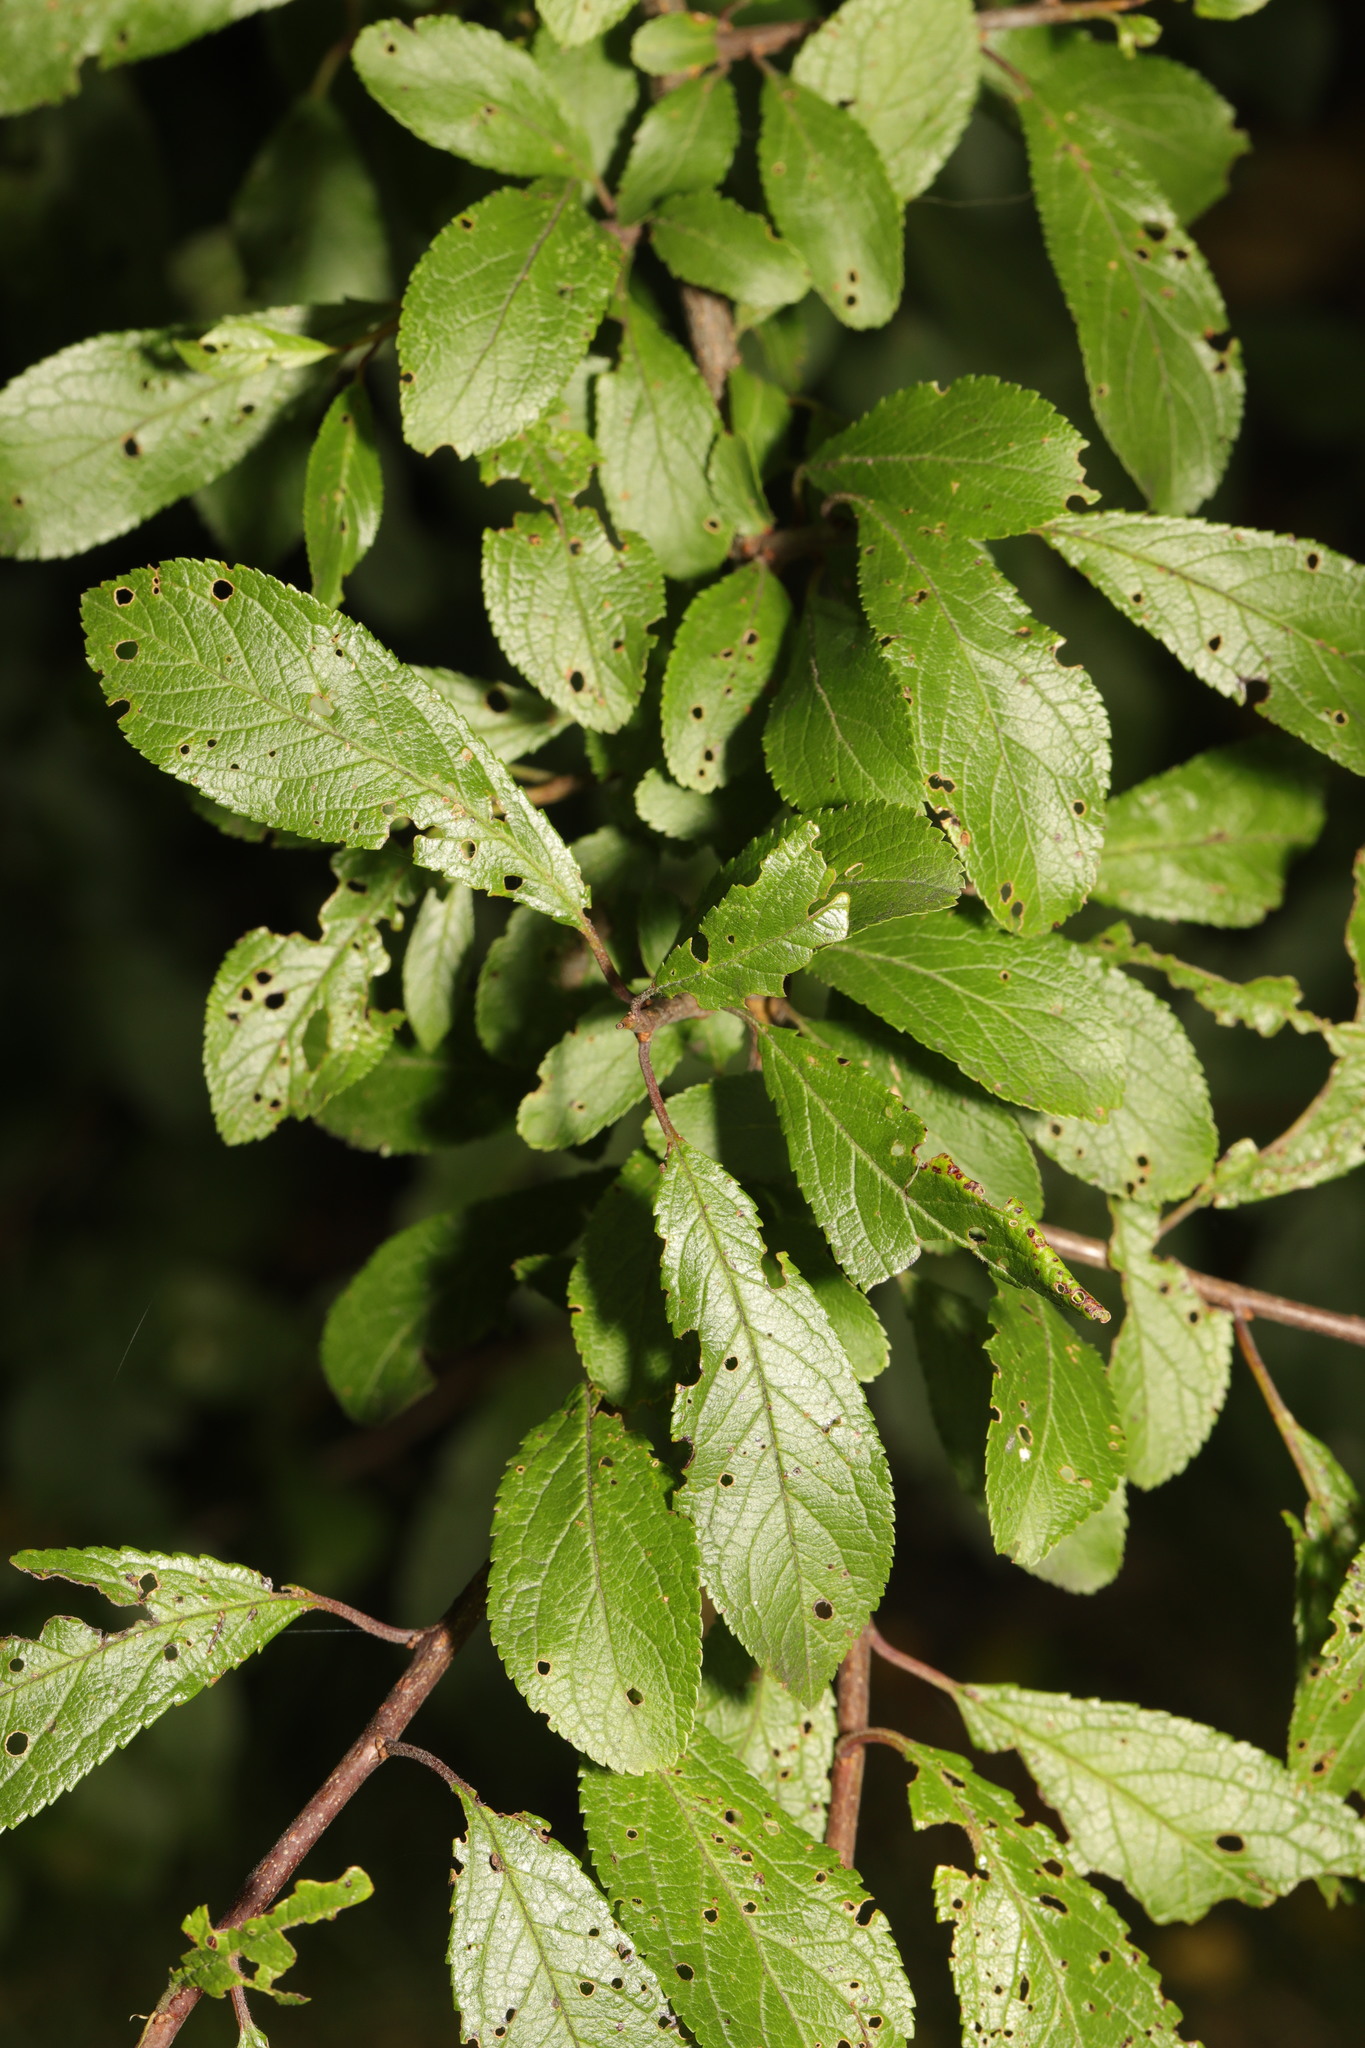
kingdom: Plantae
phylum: Tracheophyta
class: Magnoliopsida
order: Rosales
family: Rosaceae
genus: Prunus
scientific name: Prunus spinosa
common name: Blackthorn
